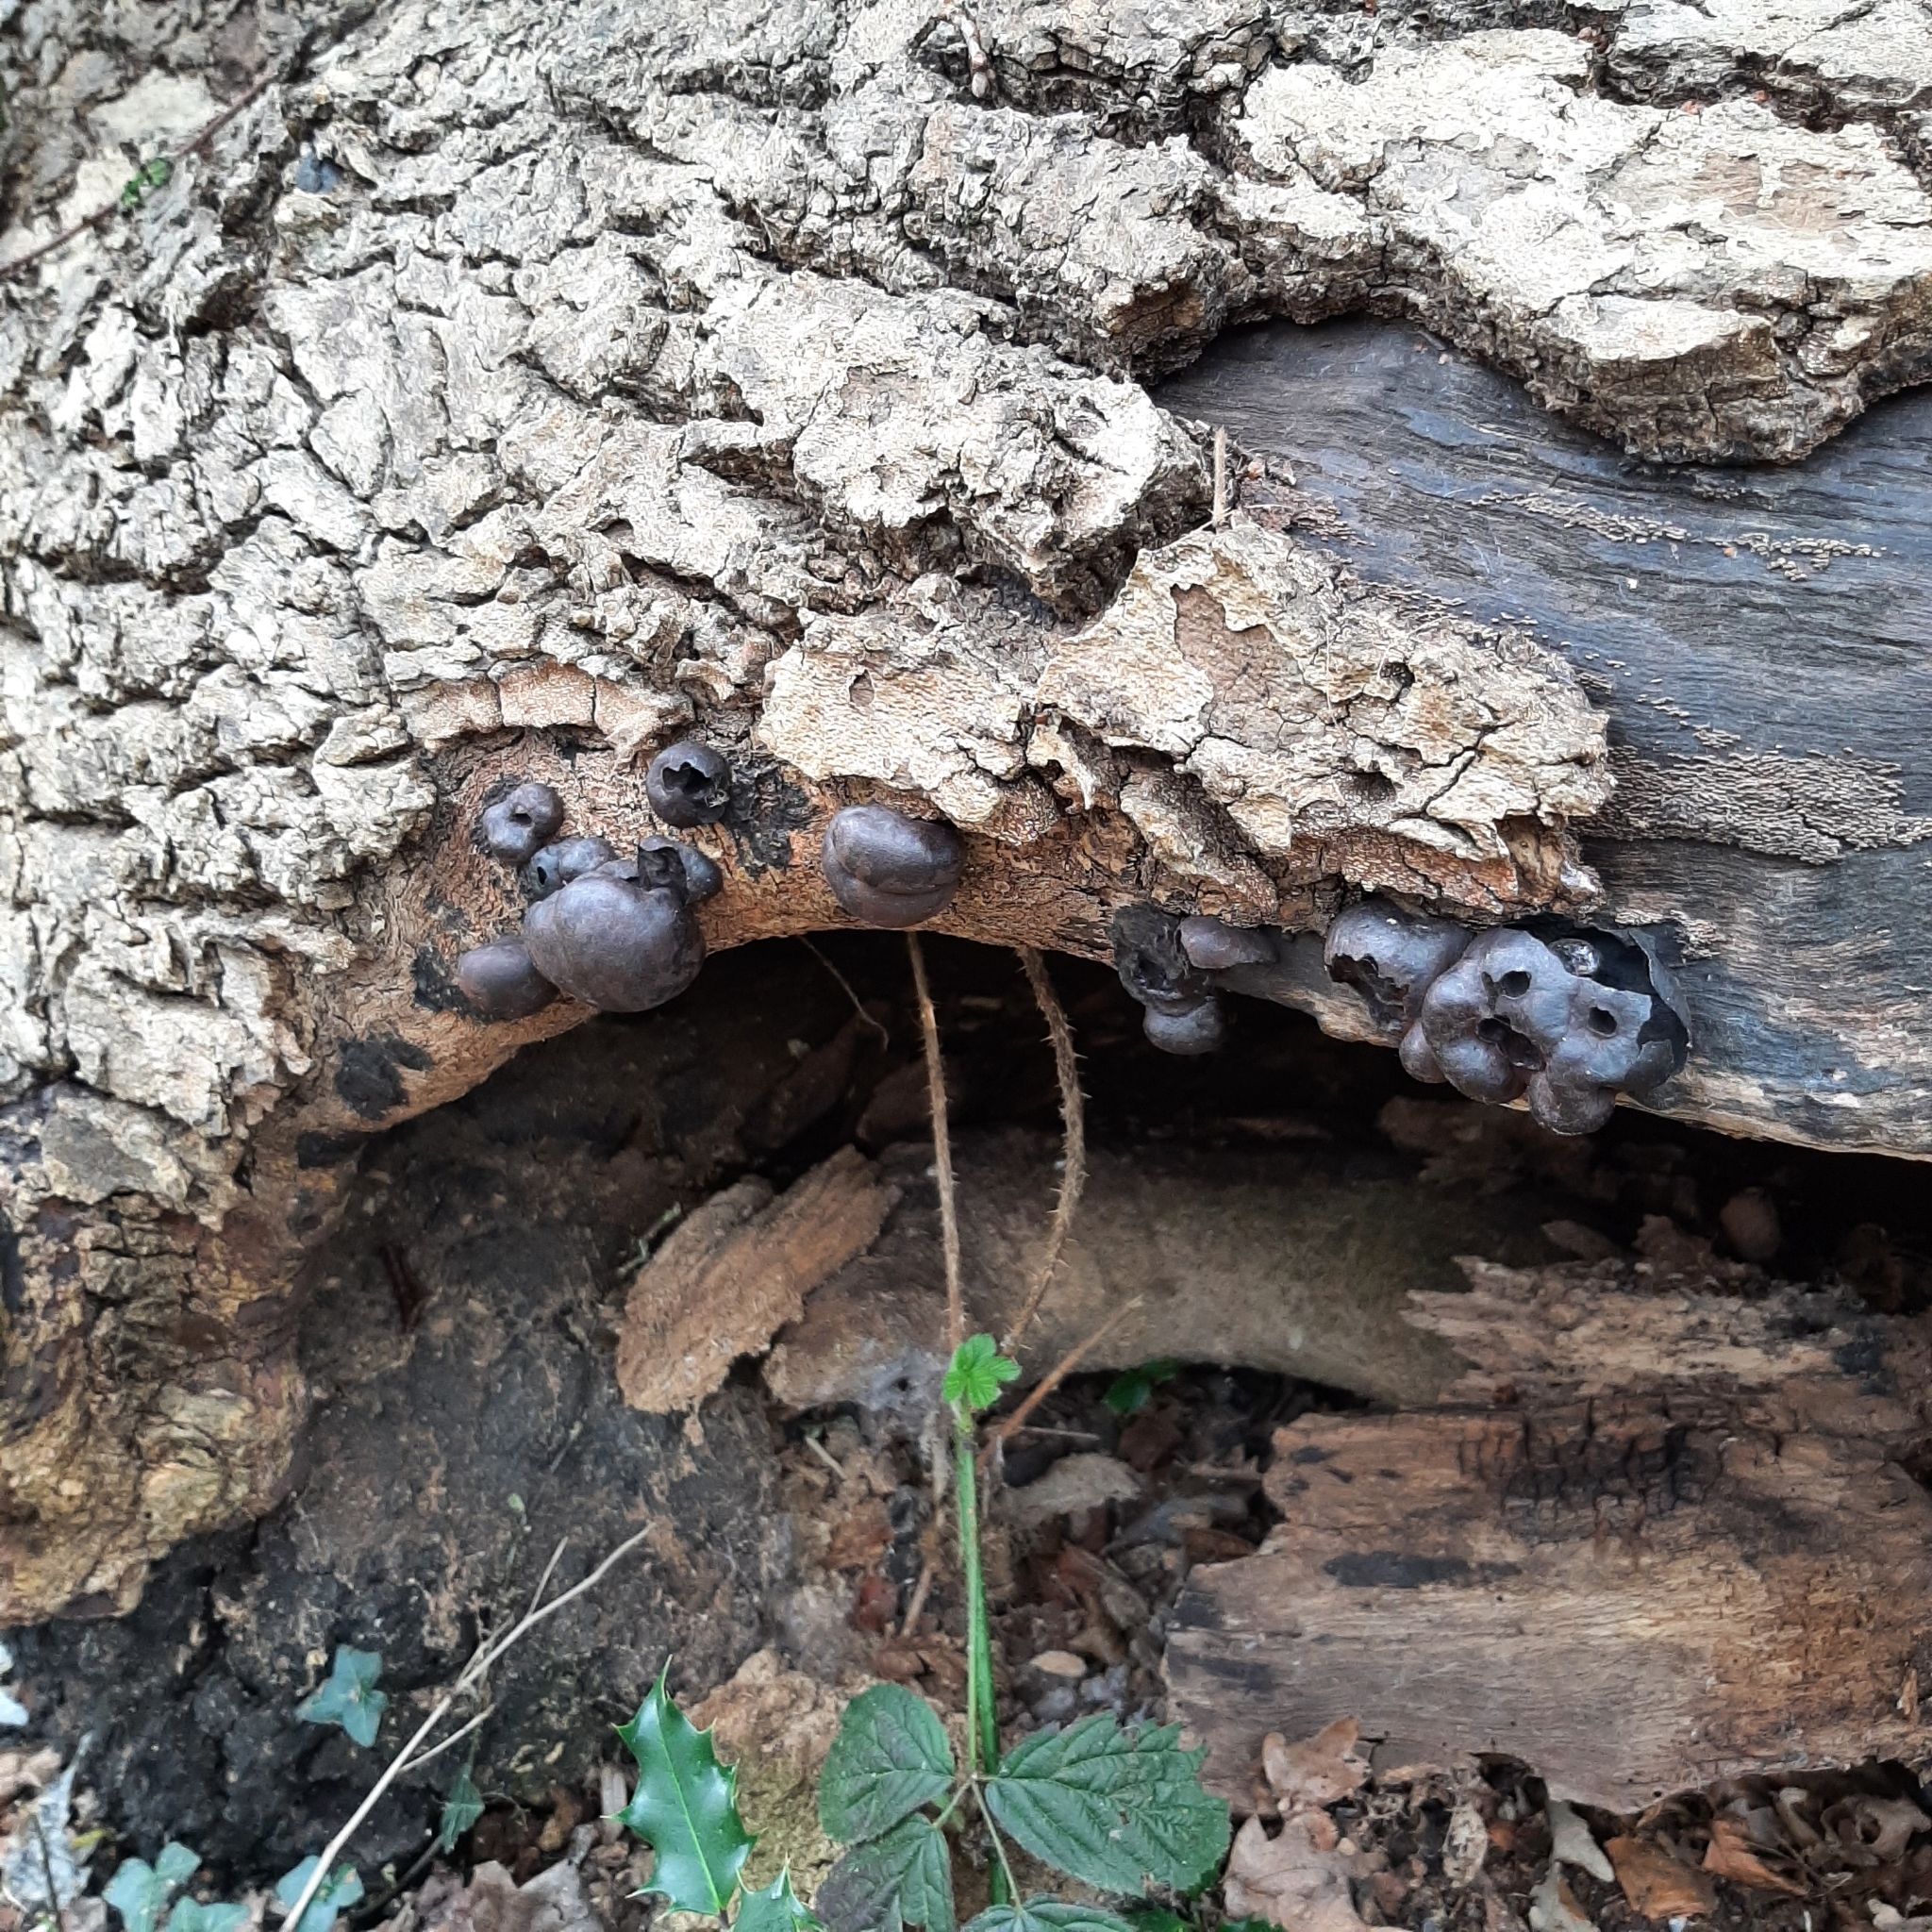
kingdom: Fungi
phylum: Ascomycota
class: Sordariomycetes
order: Xylariales
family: Hypoxylaceae
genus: Daldinia
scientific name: Daldinia concentrica
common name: Cramp balls
